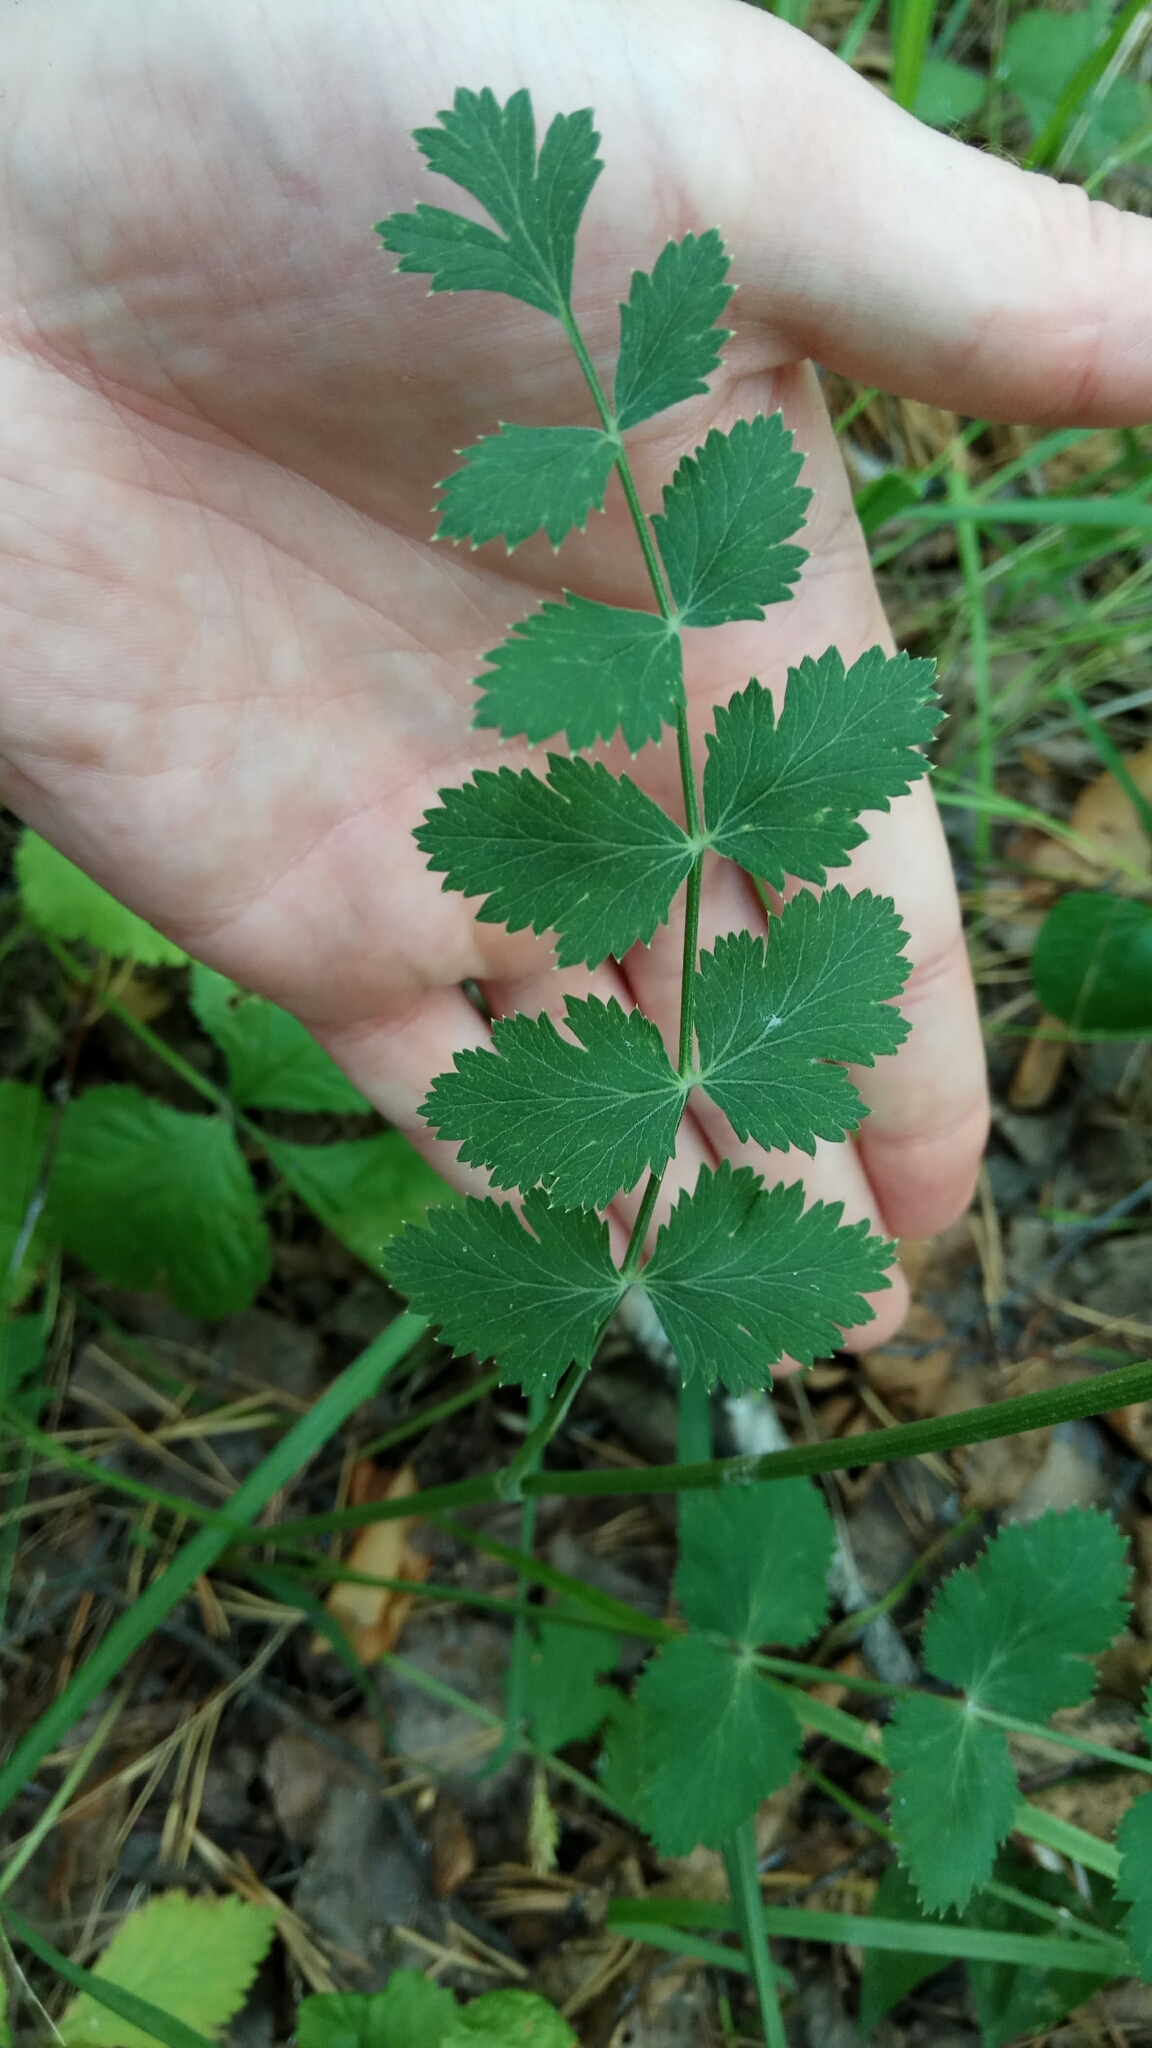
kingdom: Plantae
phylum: Tracheophyta
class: Magnoliopsida
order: Apiales
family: Apiaceae
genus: Pimpinella
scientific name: Pimpinella saxifraga
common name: Burnet-saxifrage
